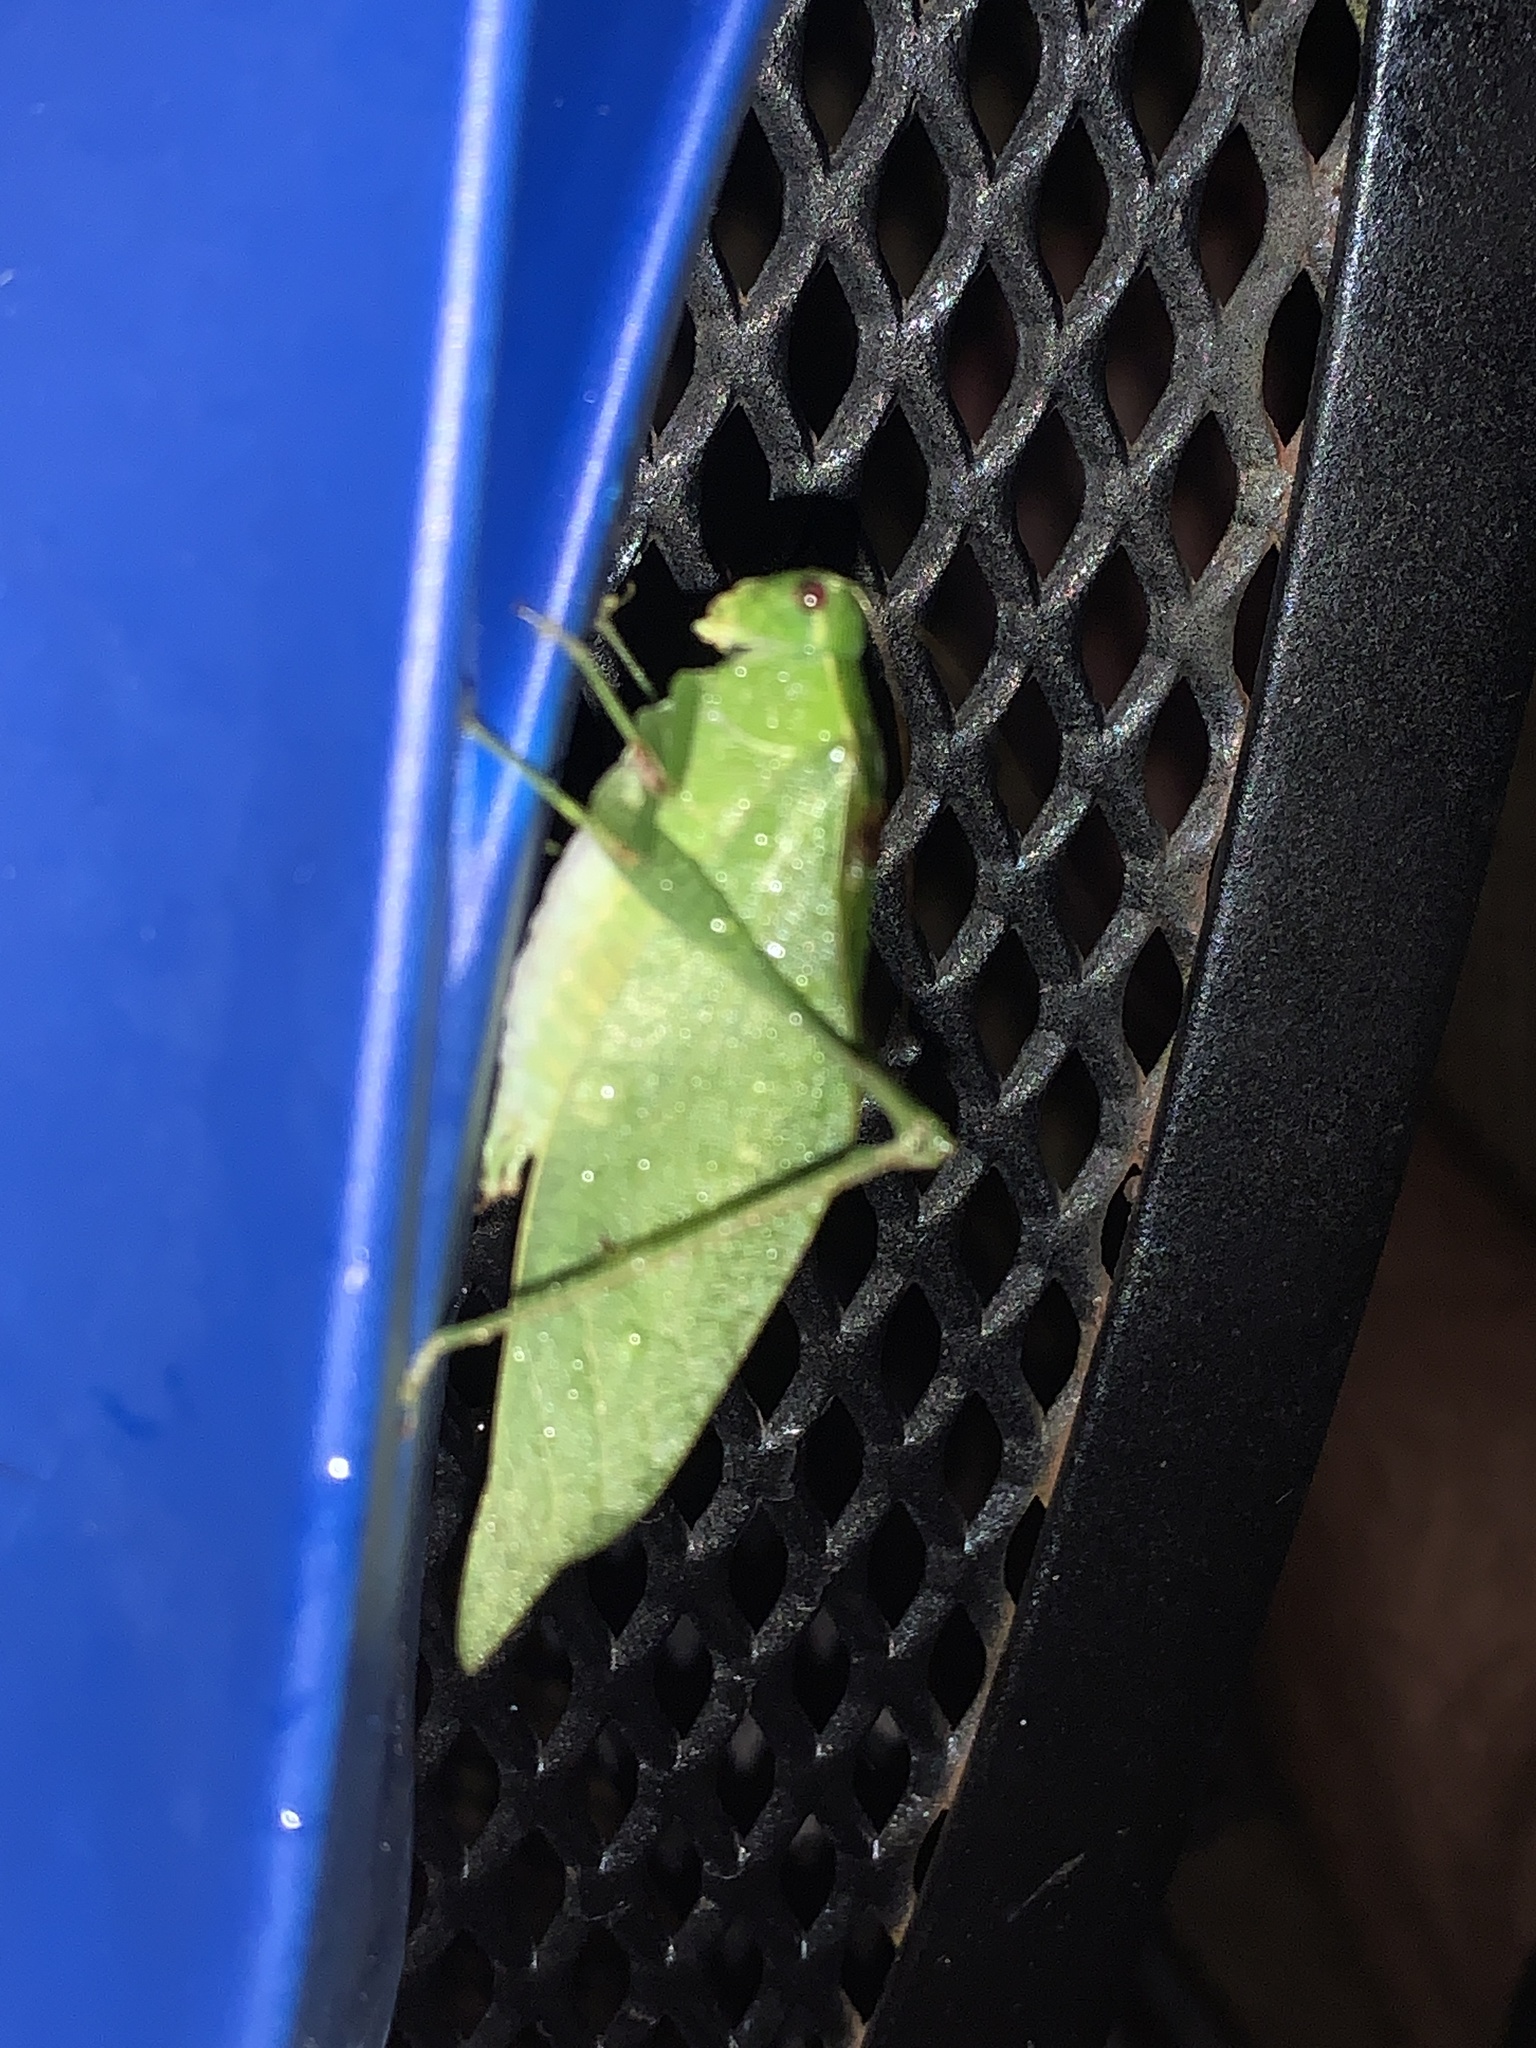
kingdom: Animalia
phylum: Arthropoda
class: Insecta
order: Orthoptera
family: Tettigoniidae
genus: Microcentrum
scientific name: Microcentrum retinerve
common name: Angular-winged katydid
